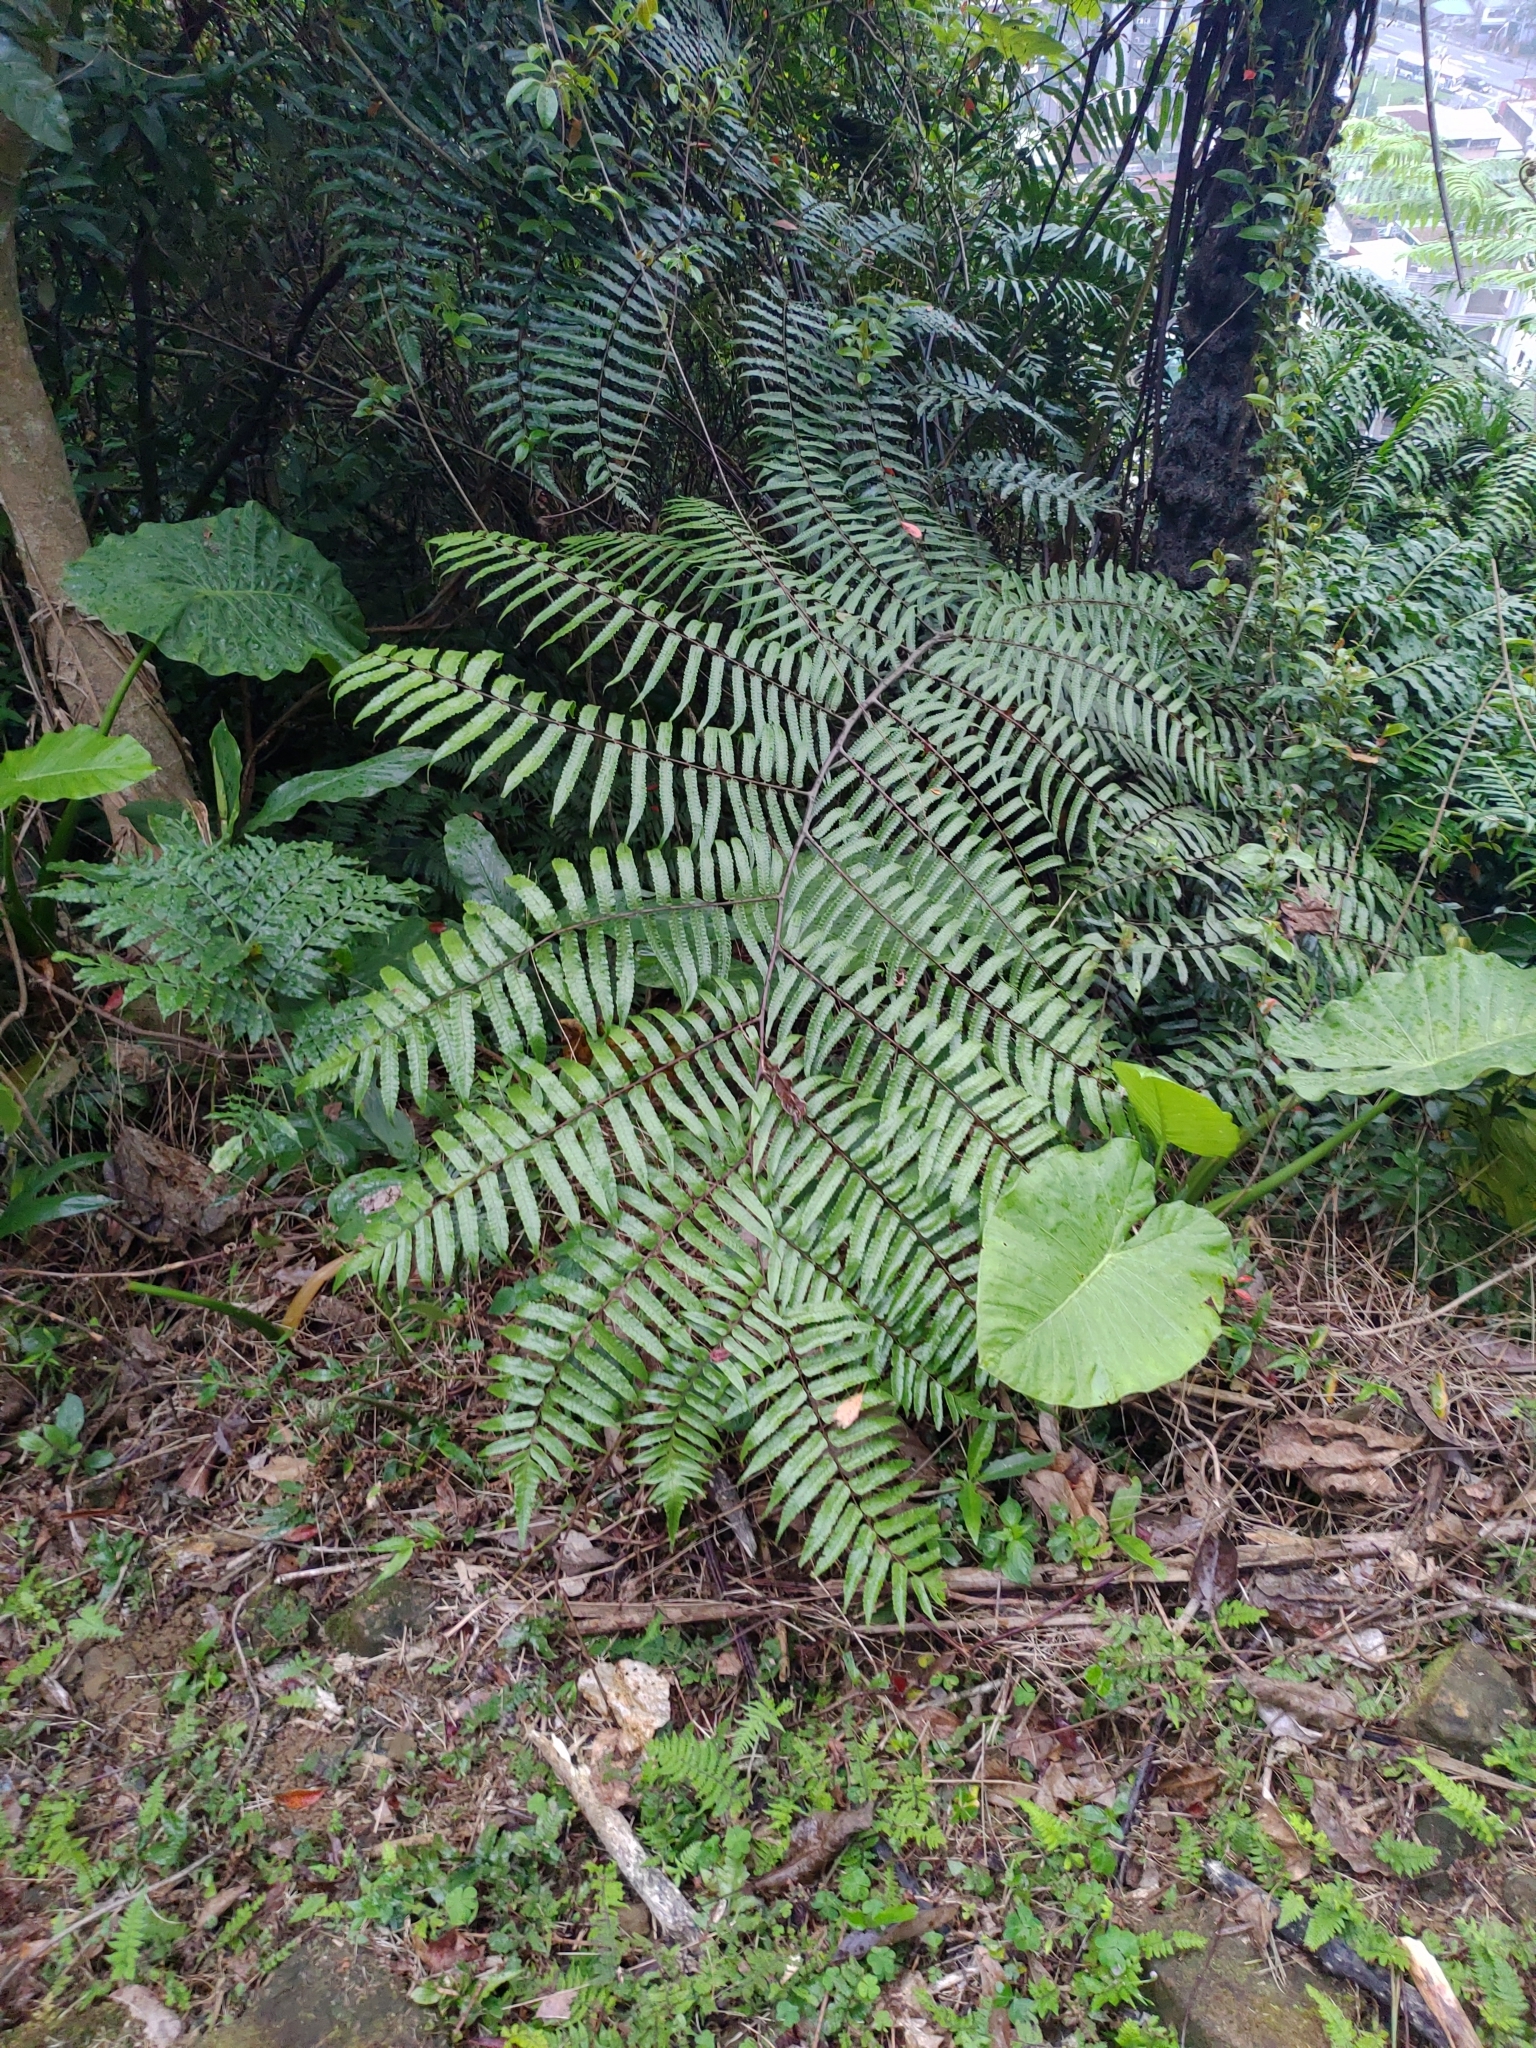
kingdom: Plantae
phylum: Tracheophyta
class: Polypodiopsida
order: Cyatheales
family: Cyatheaceae
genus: Gymnosphaera
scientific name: Gymnosphaera podophylla
